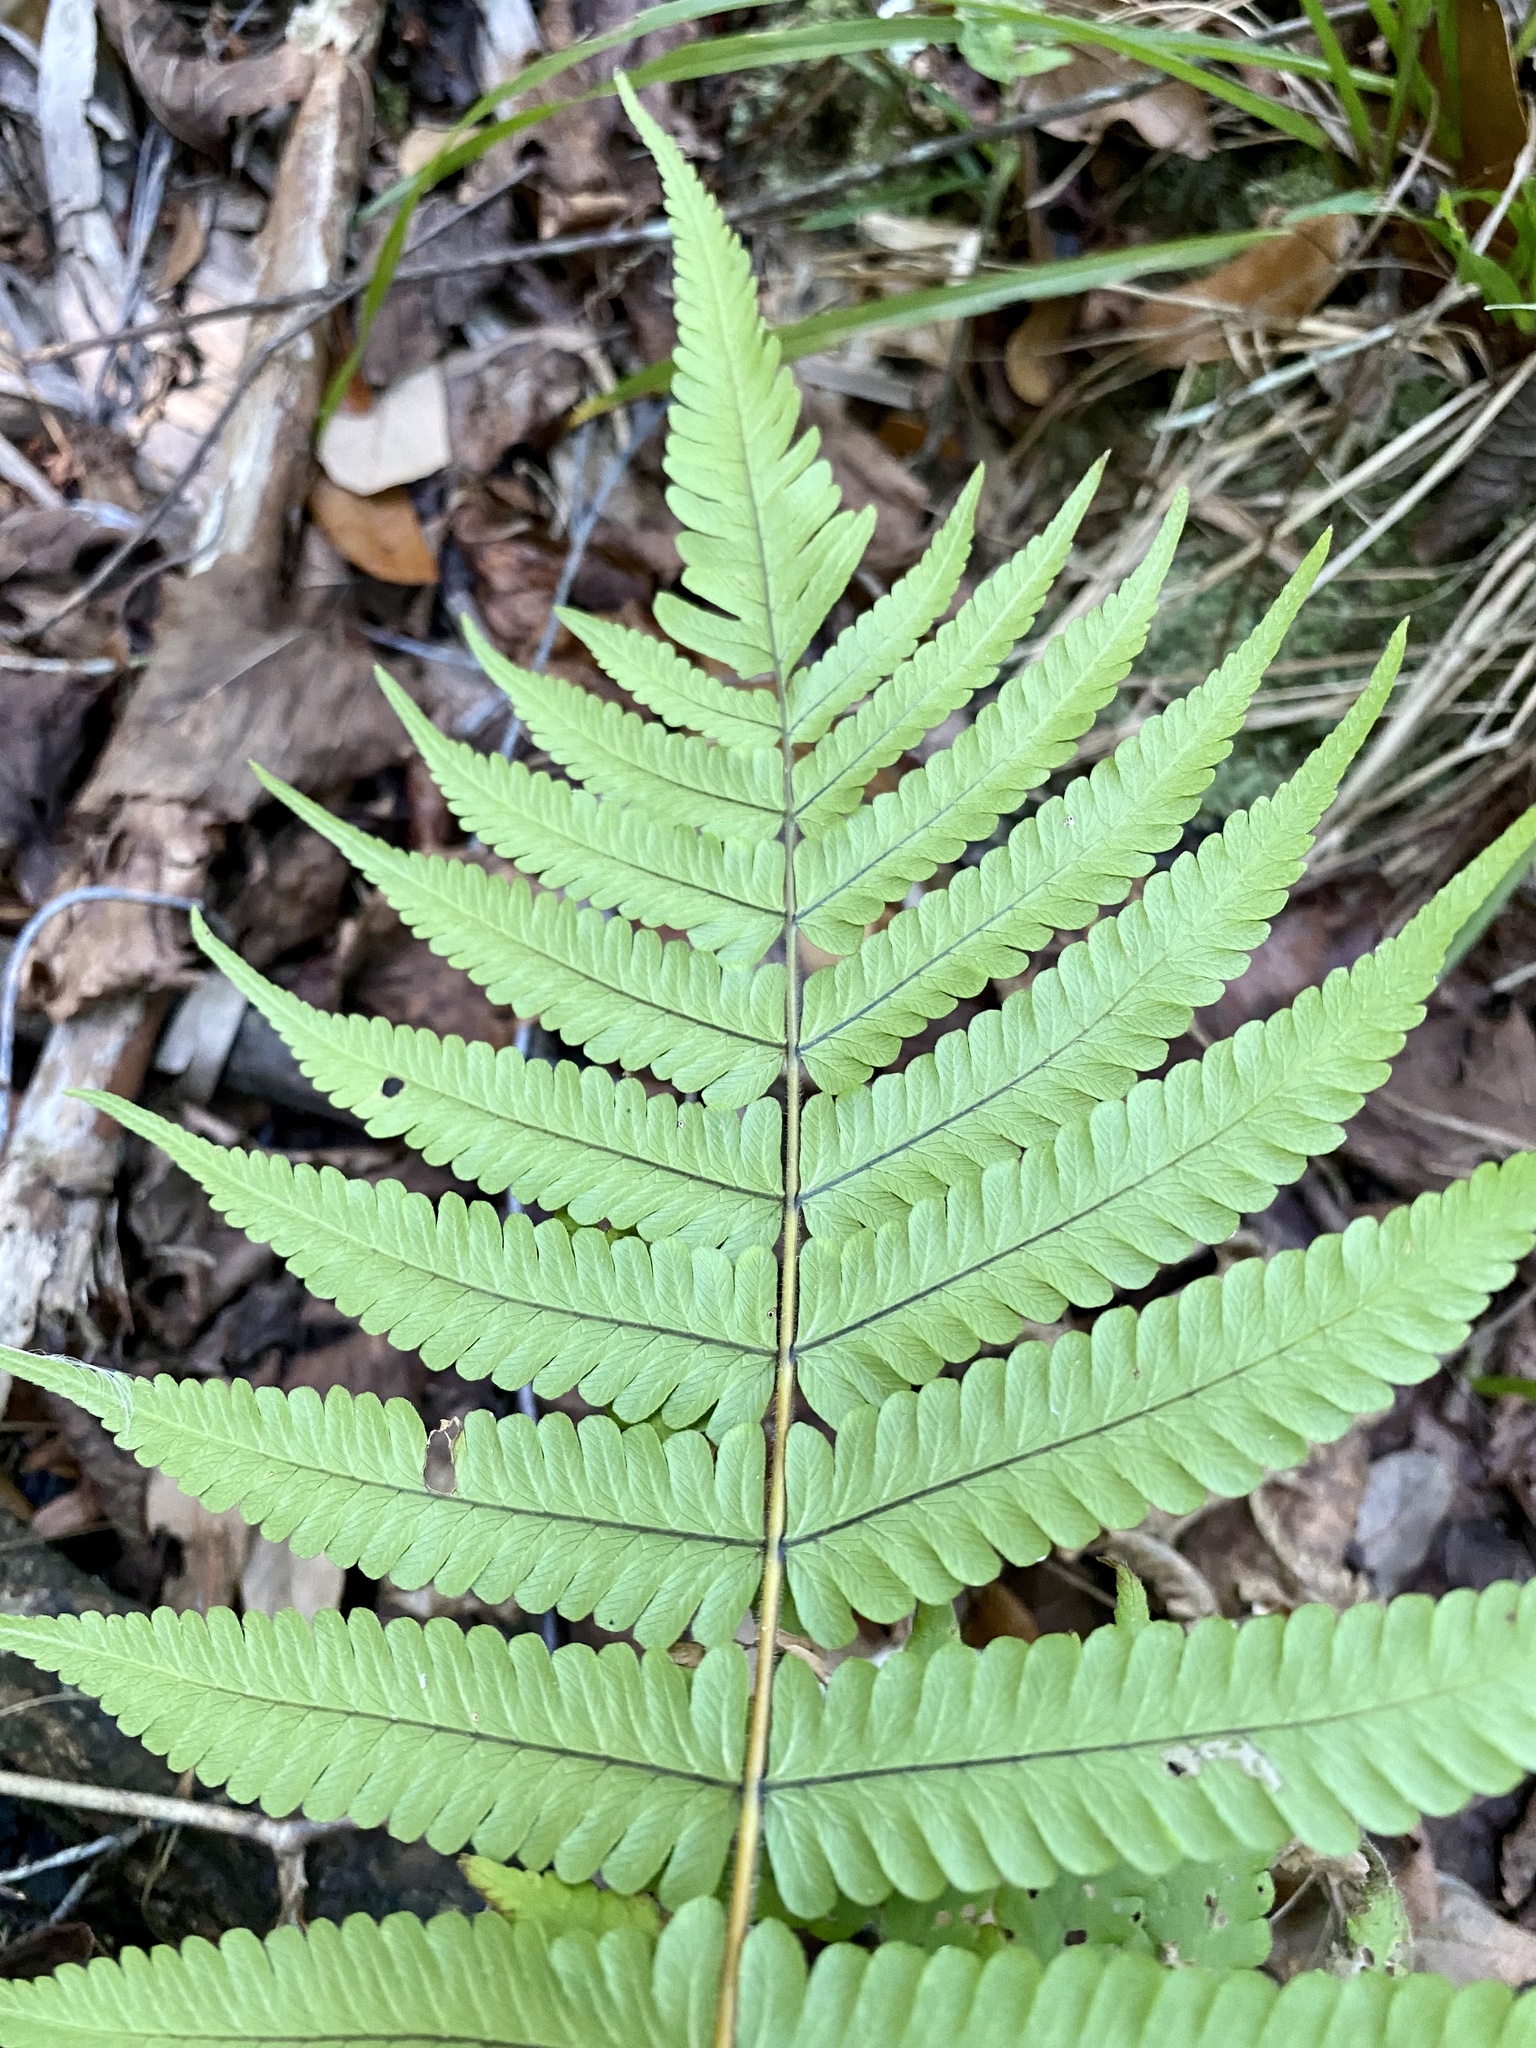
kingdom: Plantae
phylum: Tracheophyta
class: Polypodiopsida
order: Polypodiales
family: Thelypteridaceae
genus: Christella
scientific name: Christella dentata
